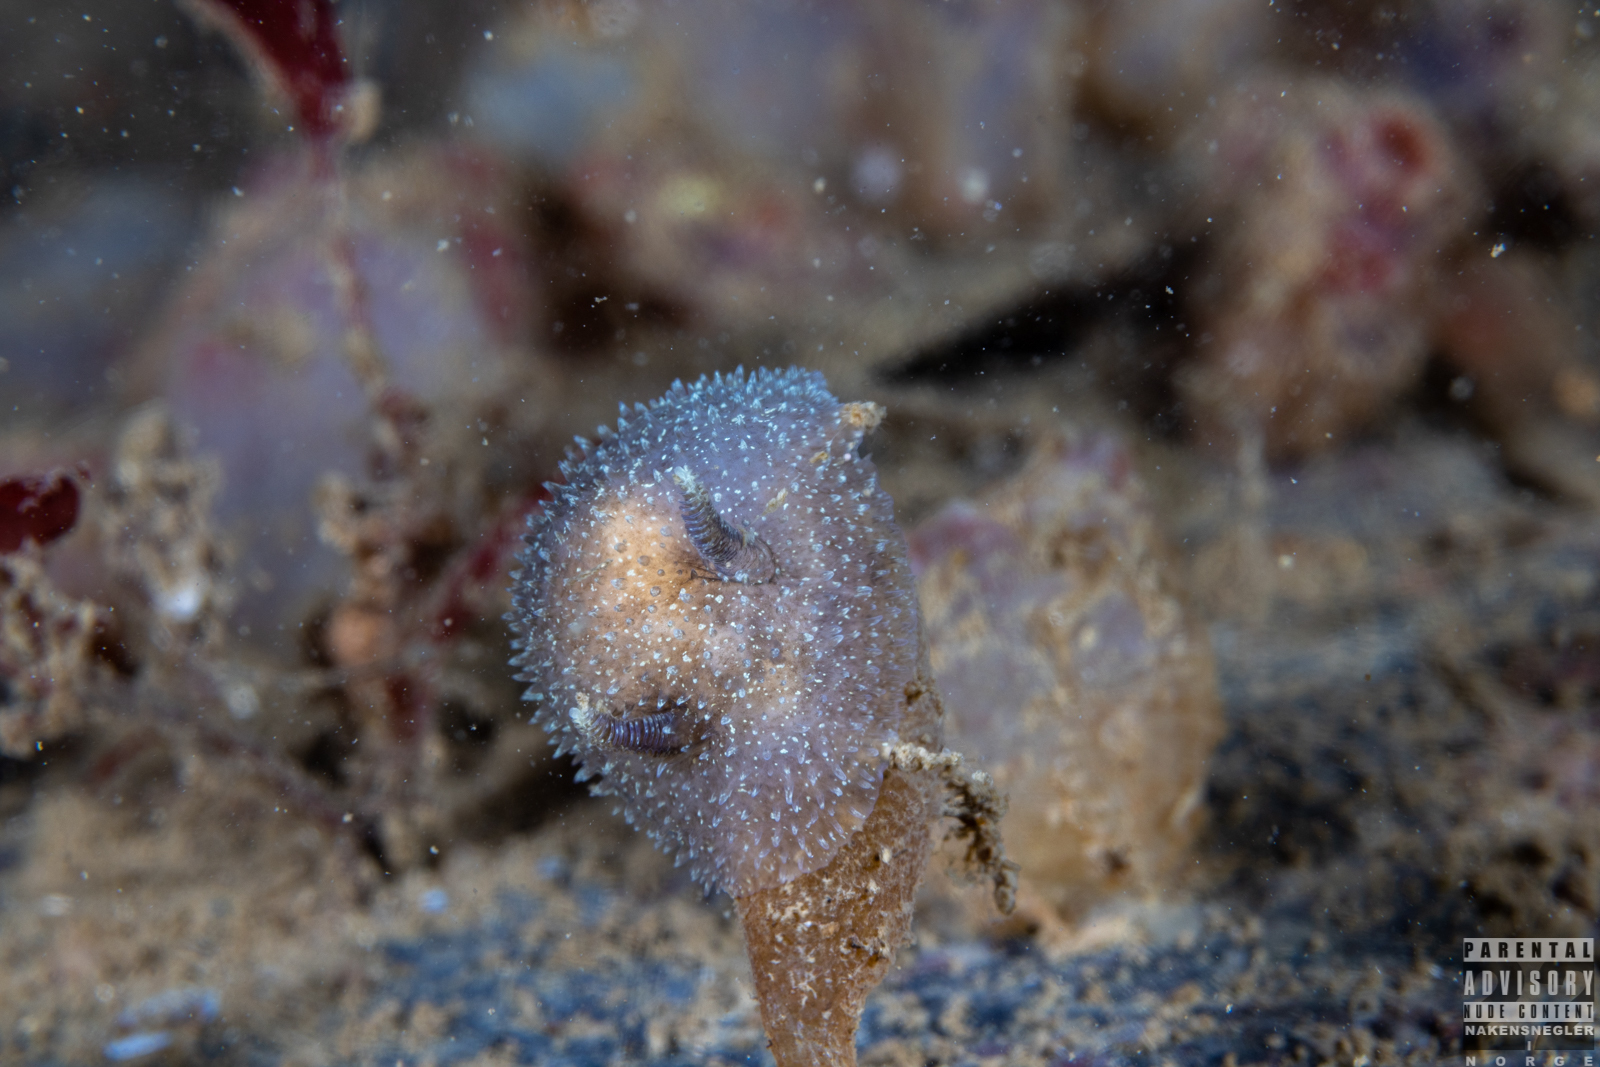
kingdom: Animalia
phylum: Mollusca
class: Gastropoda
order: Nudibranchia
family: Onchidorididae
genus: Acanthodoris
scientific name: Acanthodoris pilosa
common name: Hairy spiny doris
